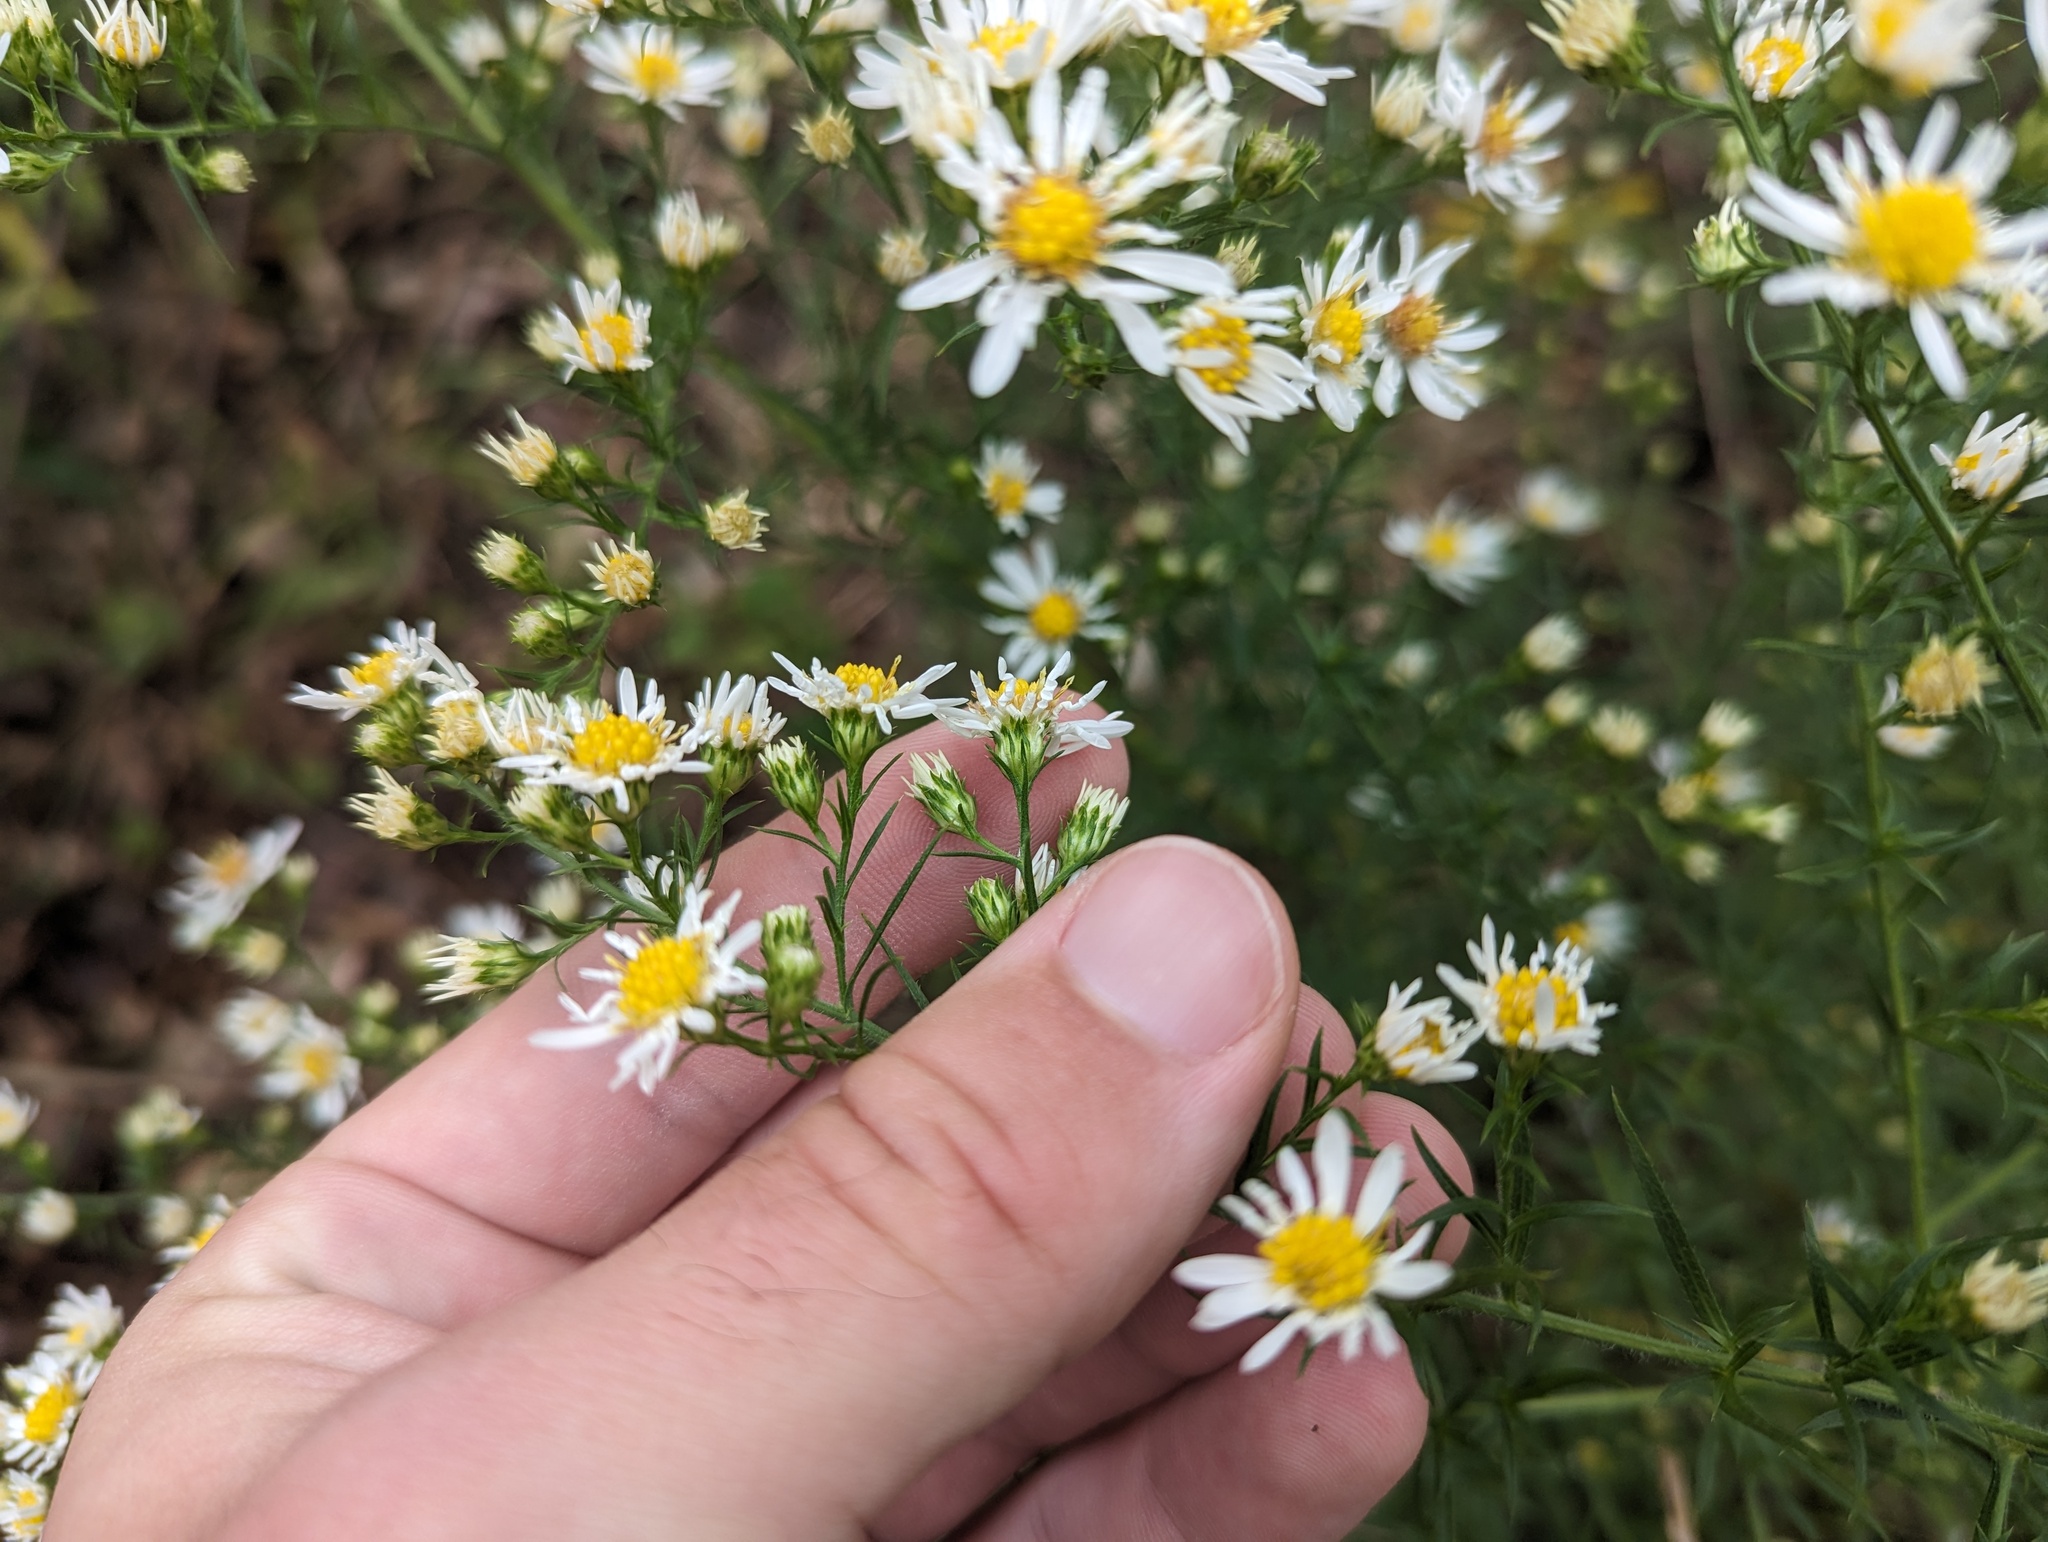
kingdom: Plantae
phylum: Tracheophyta
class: Magnoliopsida
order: Asterales
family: Asteraceae
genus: Symphyotrichum
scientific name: Symphyotrichum pilosum
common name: Awl aster
